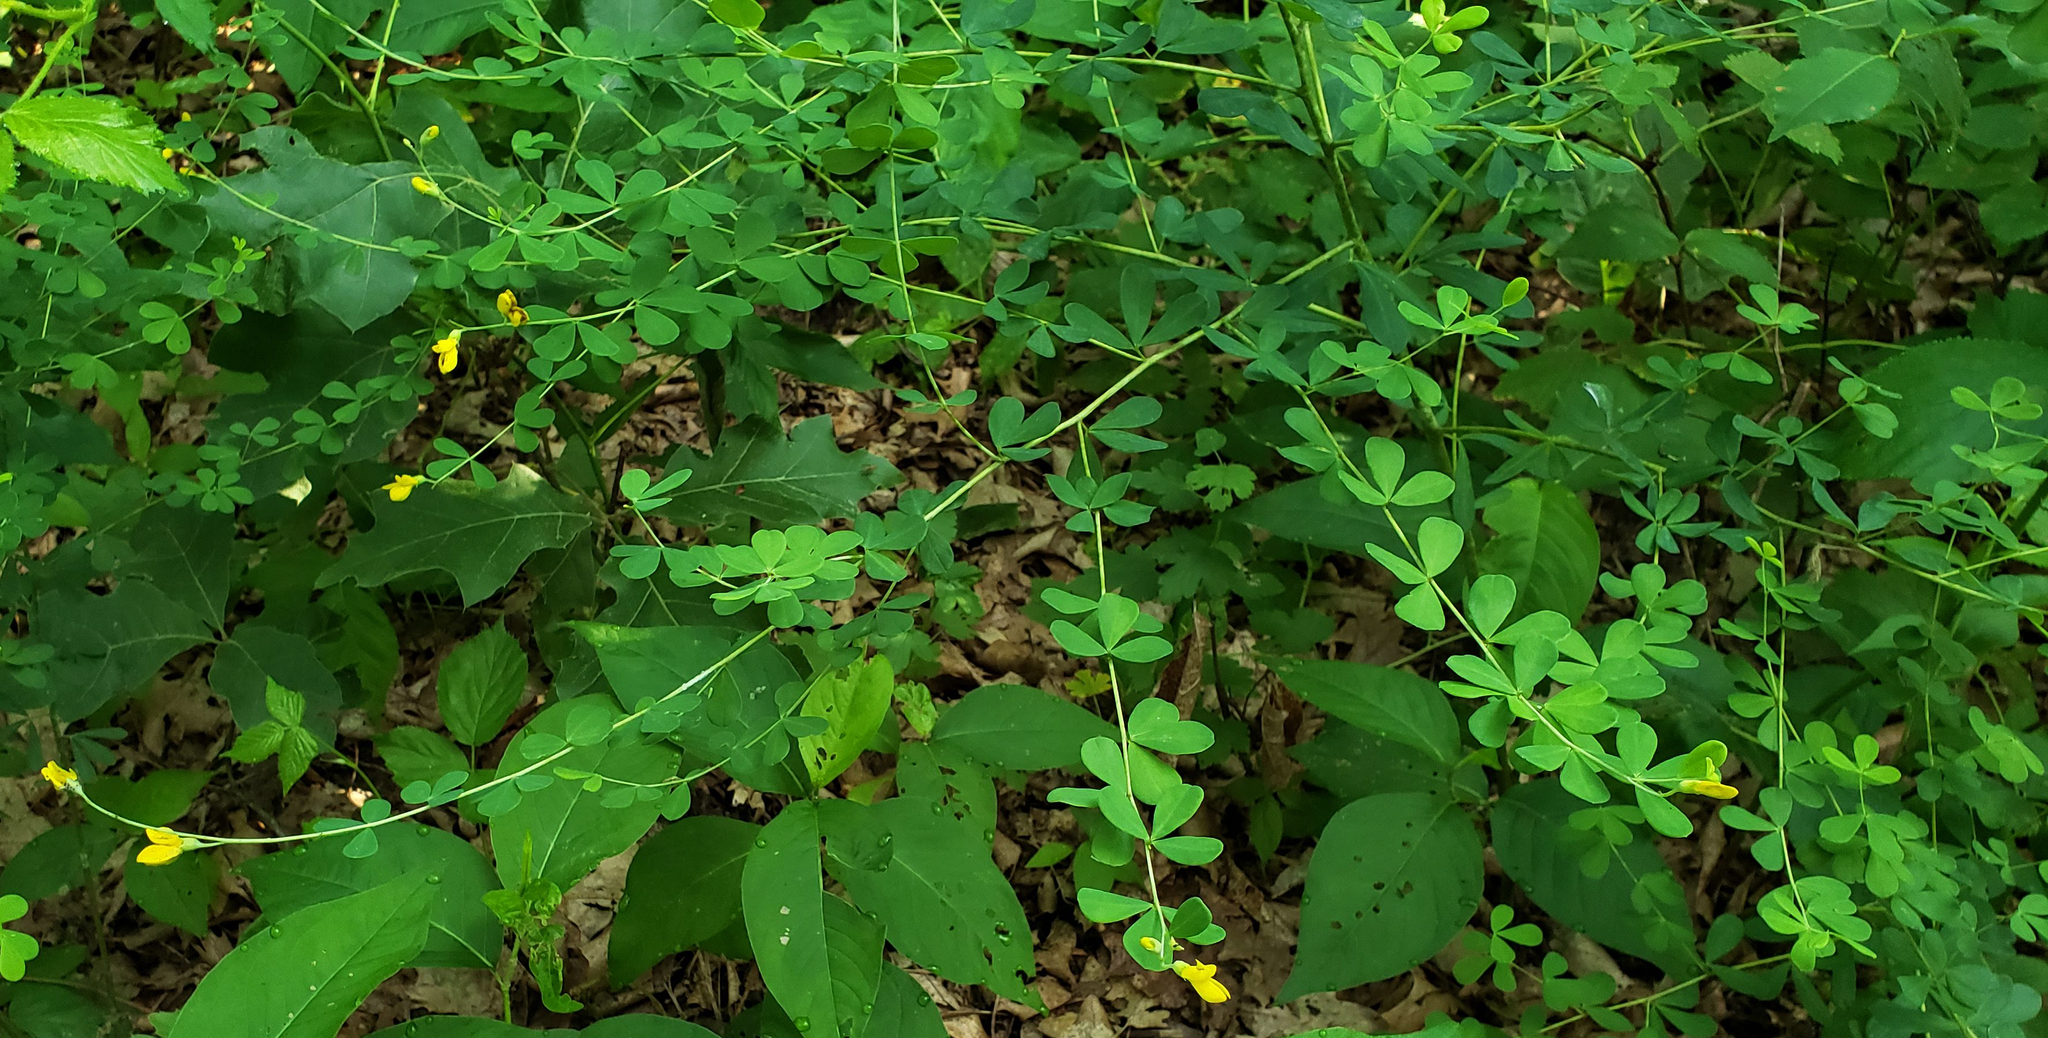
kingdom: Plantae
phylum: Tracheophyta
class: Magnoliopsida
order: Fabales
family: Fabaceae
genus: Baptisia
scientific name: Baptisia tinctoria
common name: Wild indigo
